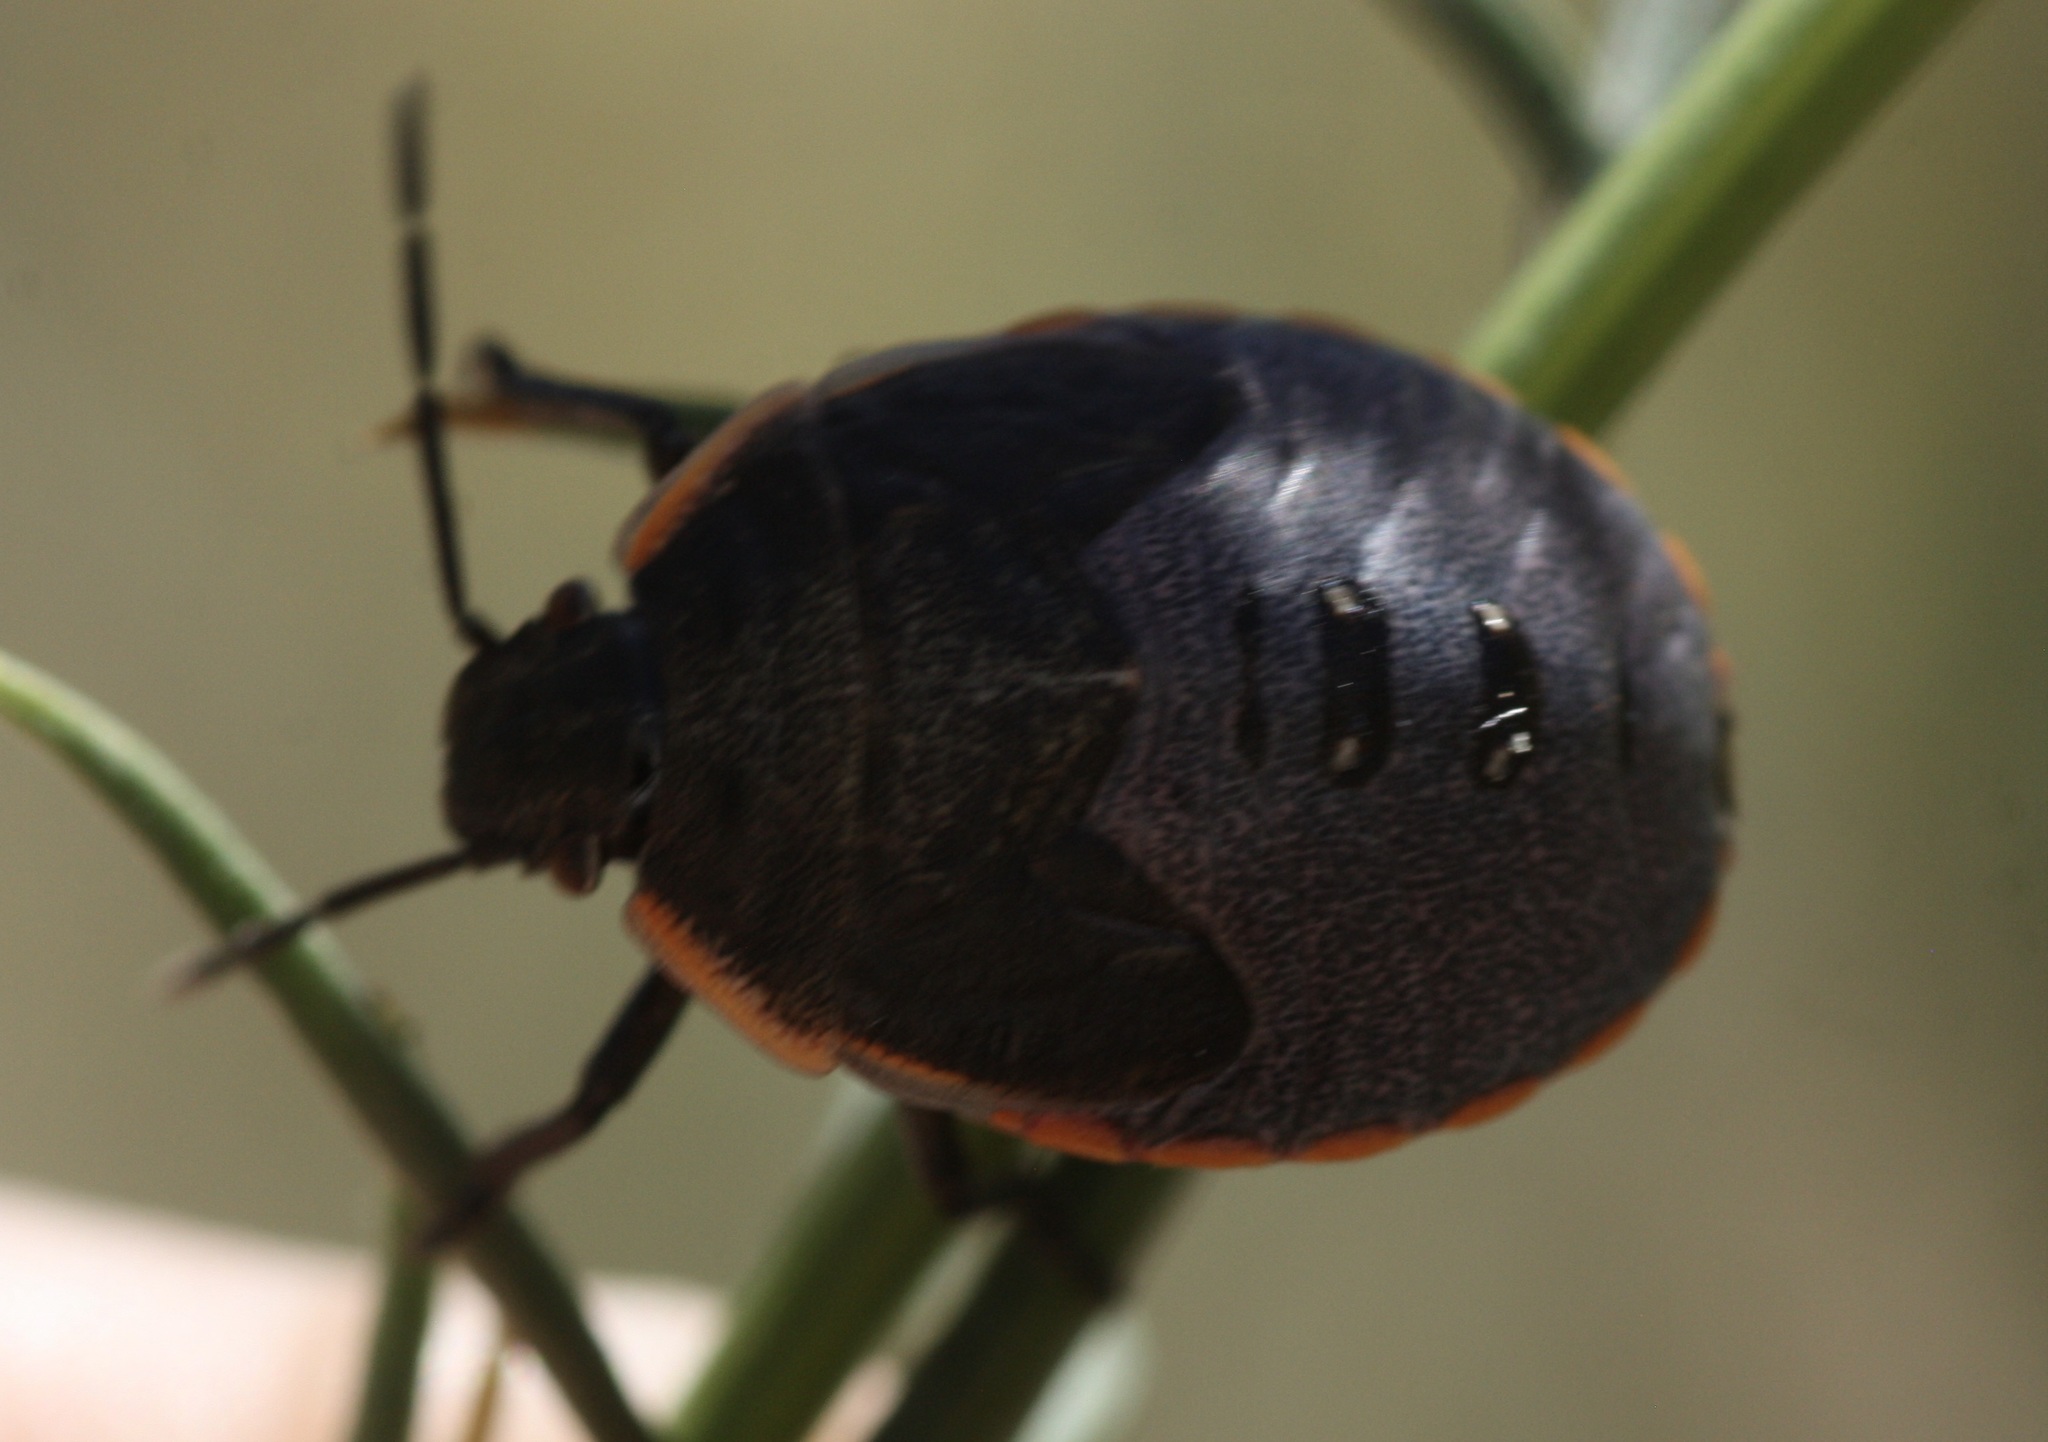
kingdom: Animalia
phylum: Arthropoda
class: Insecta
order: Hemiptera
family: Pentatomidae
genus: Chlorochroa
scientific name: Chlorochroa ligata
